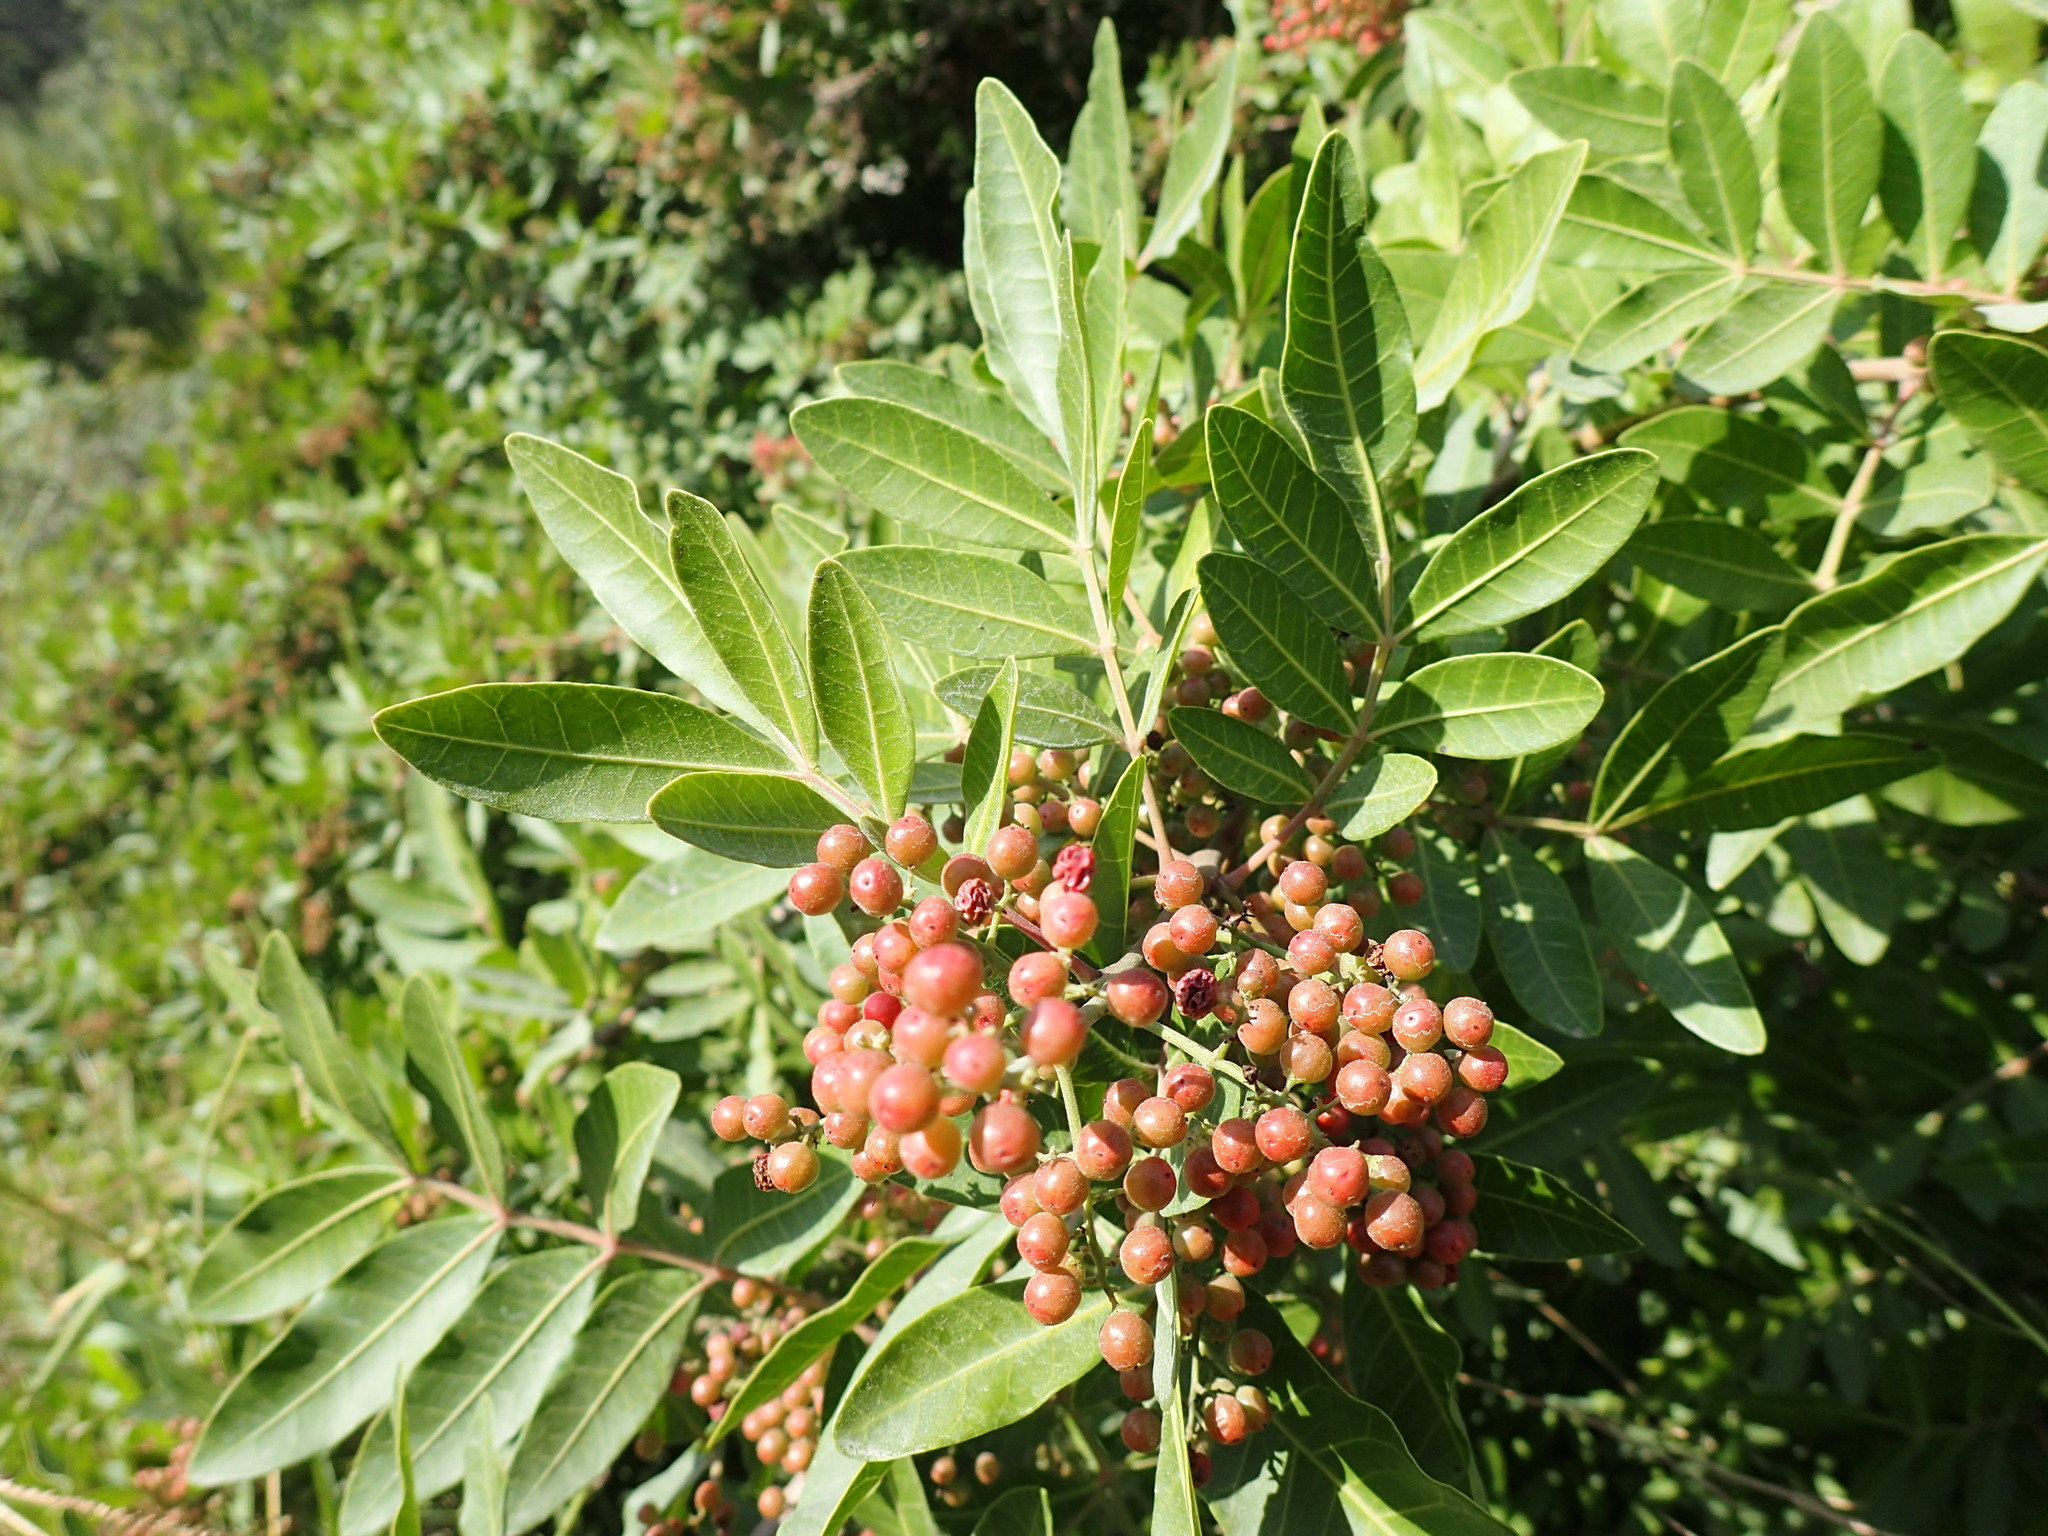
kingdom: Plantae
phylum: Tracheophyta
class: Magnoliopsida
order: Sapindales
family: Anacardiaceae
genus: Schinus
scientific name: Schinus terebinthifolia
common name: Brazilian peppertree
